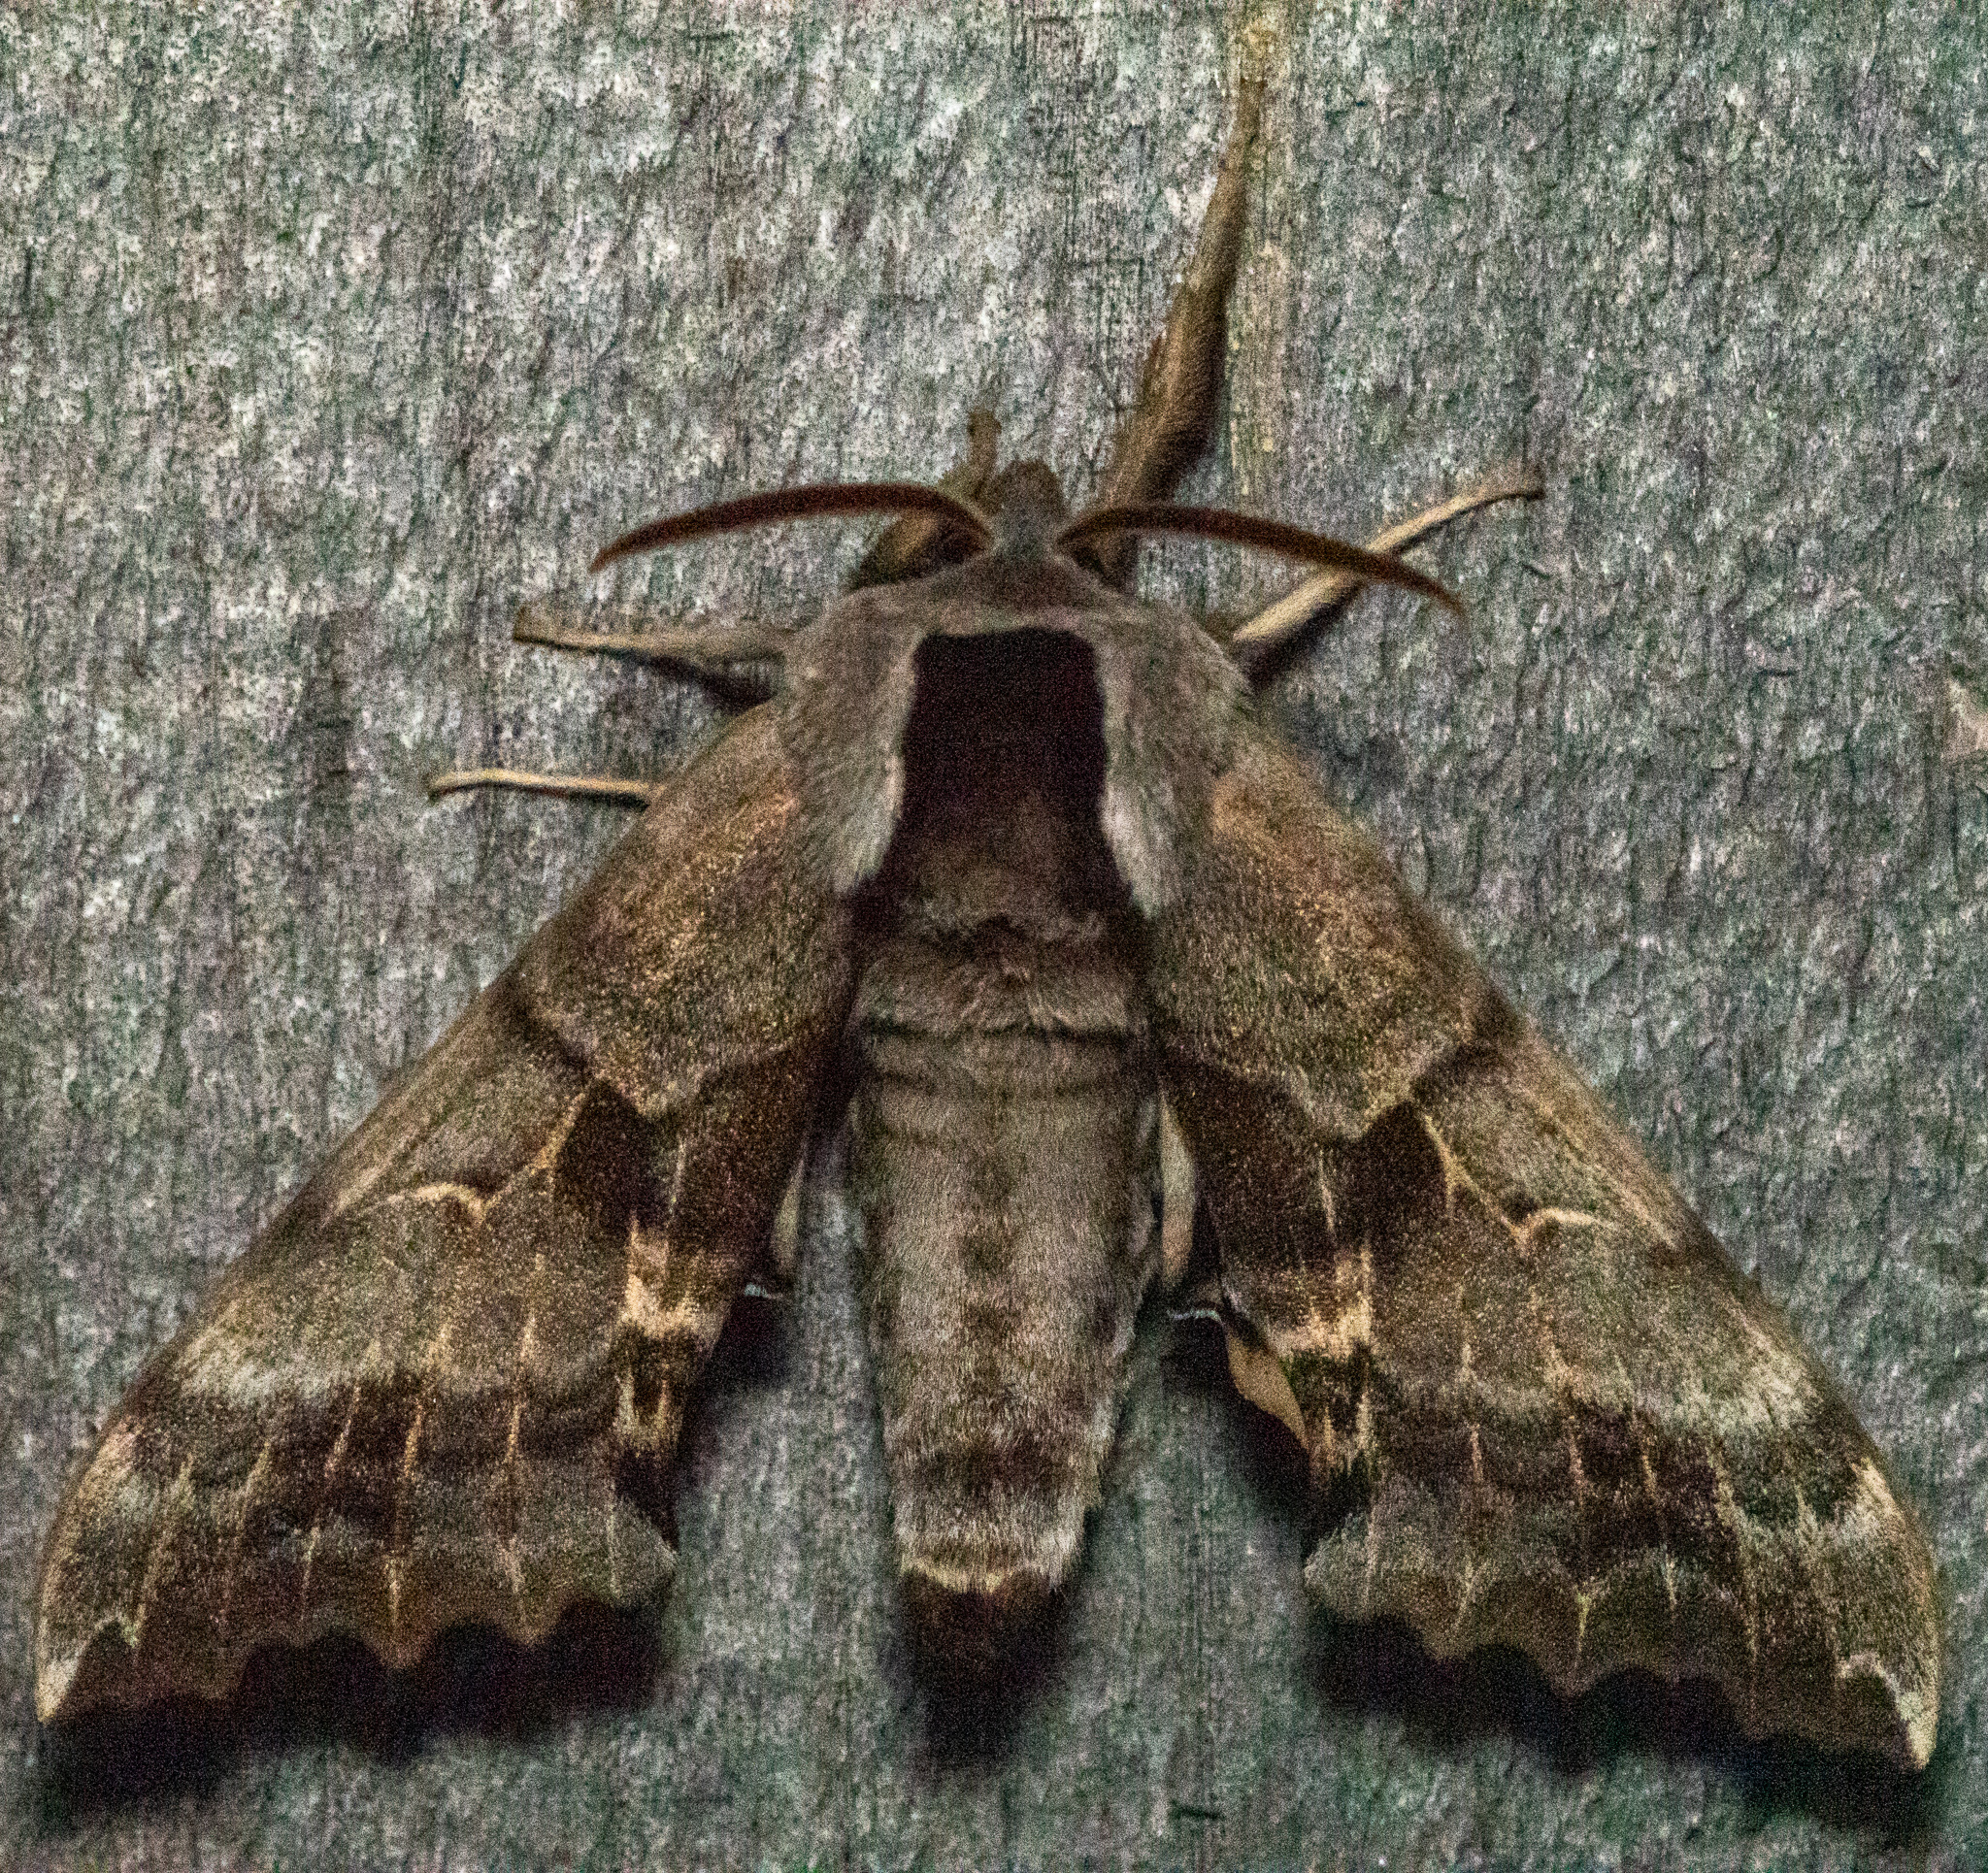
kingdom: Animalia
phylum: Arthropoda
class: Insecta
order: Lepidoptera
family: Sphingidae
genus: Smerinthus
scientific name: Smerinthus cerisyi
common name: Cerisy's sphinx moth
